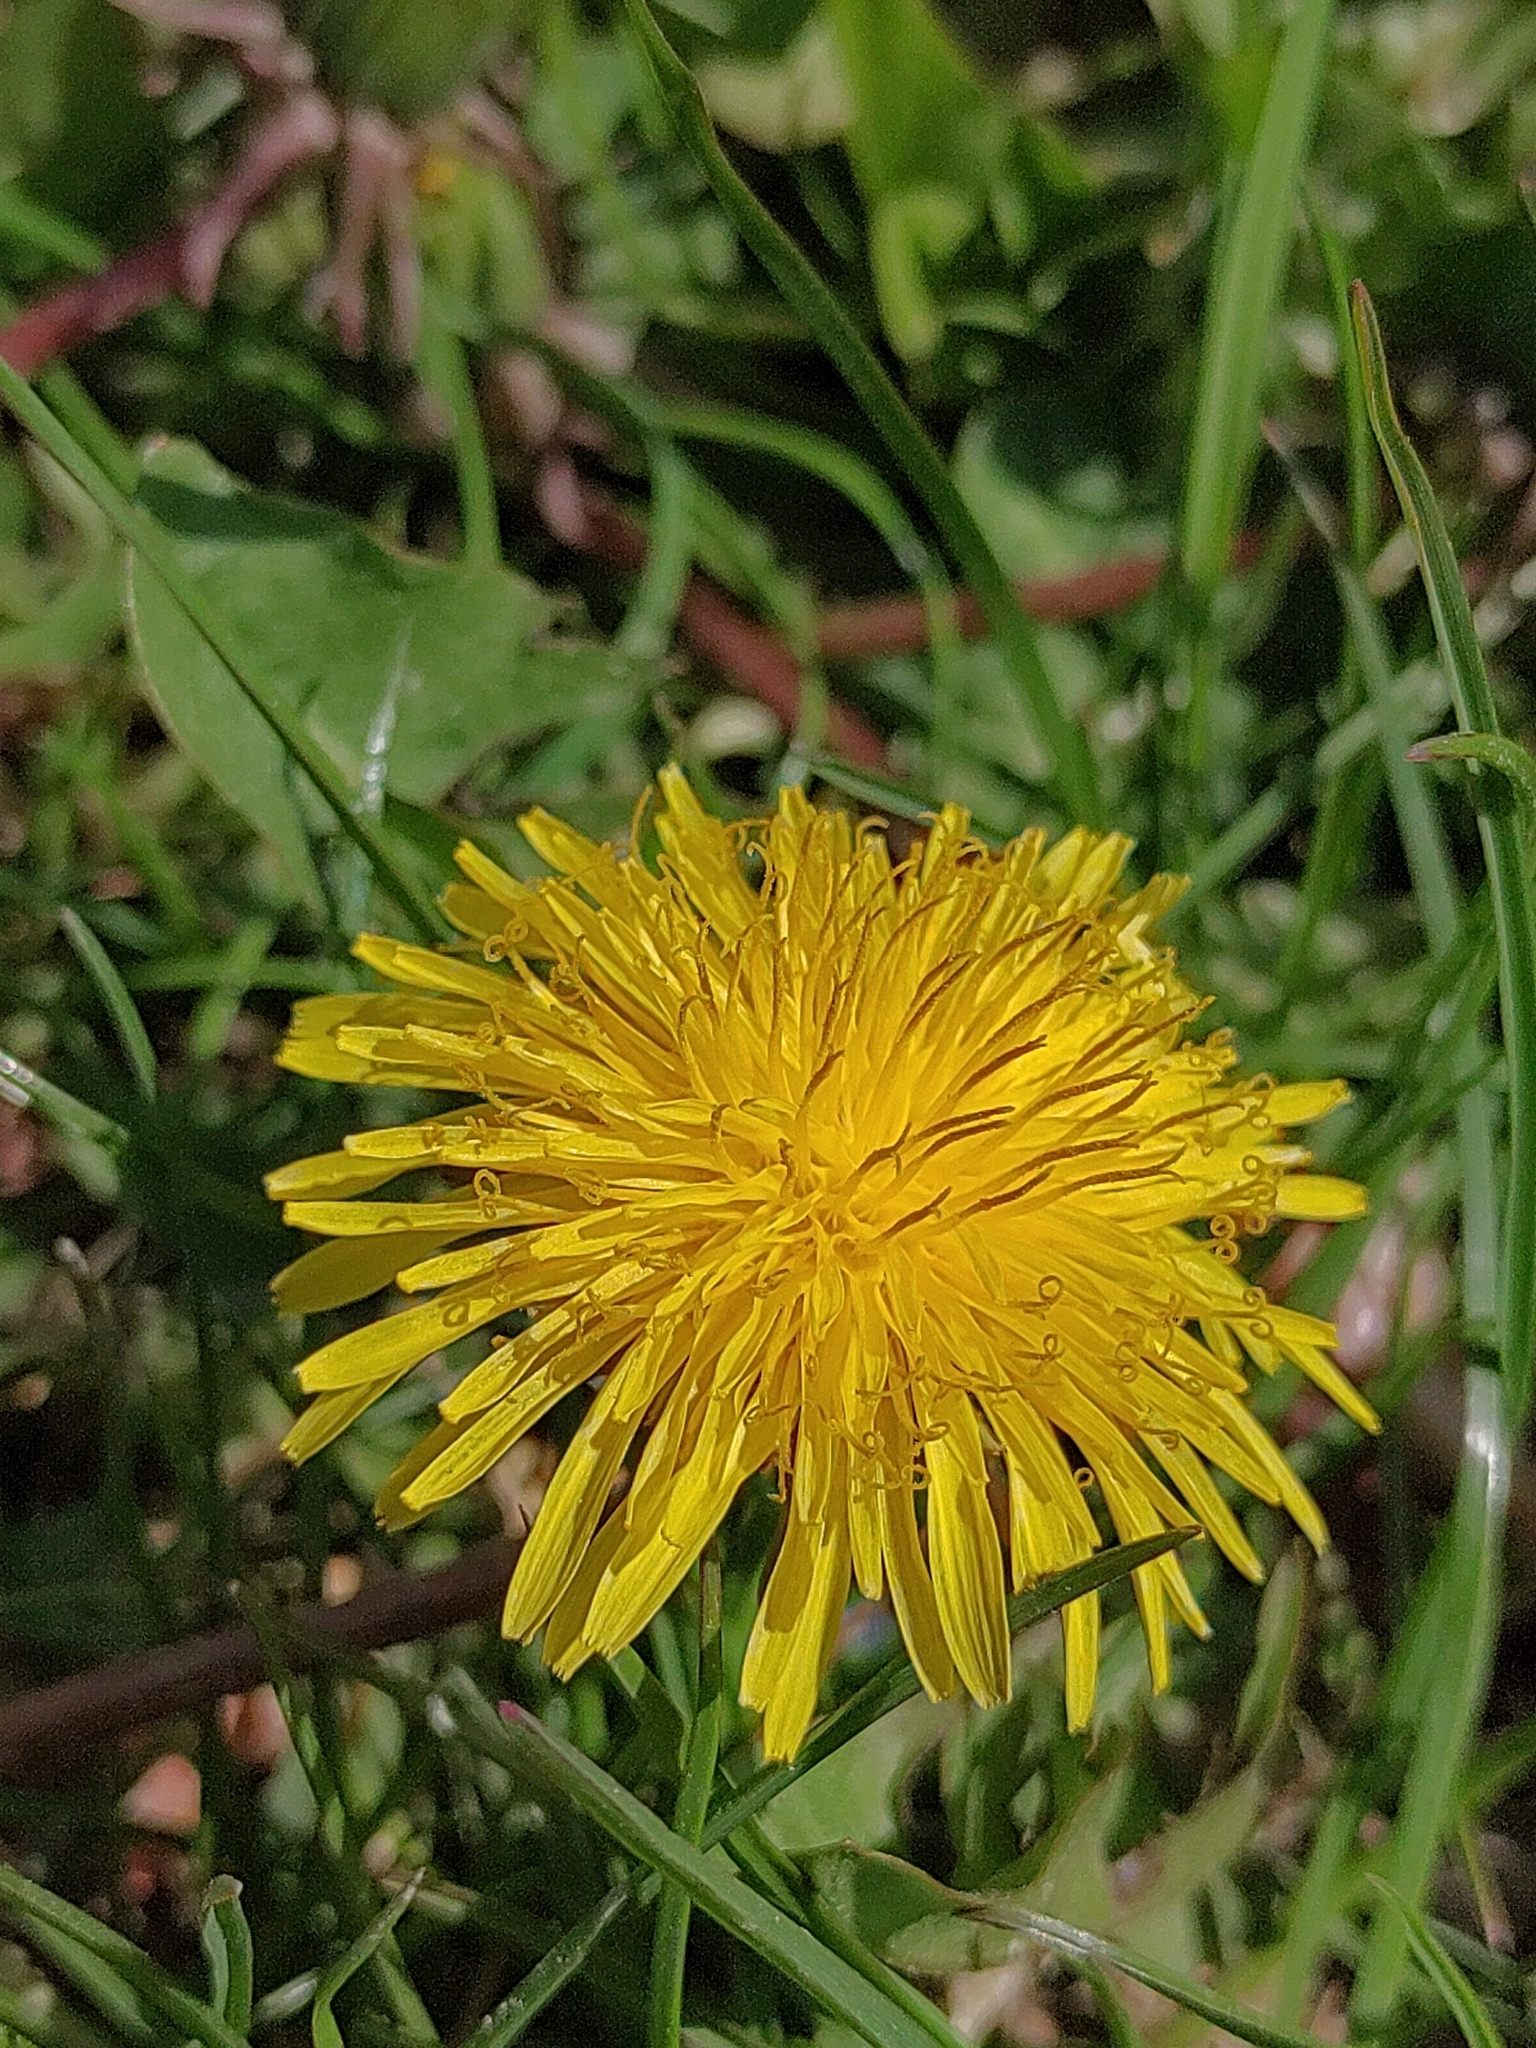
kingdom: Plantae
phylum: Tracheophyta
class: Magnoliopsida
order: Asterales
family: Asteraceae
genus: Taraxacum
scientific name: Taraxacum
